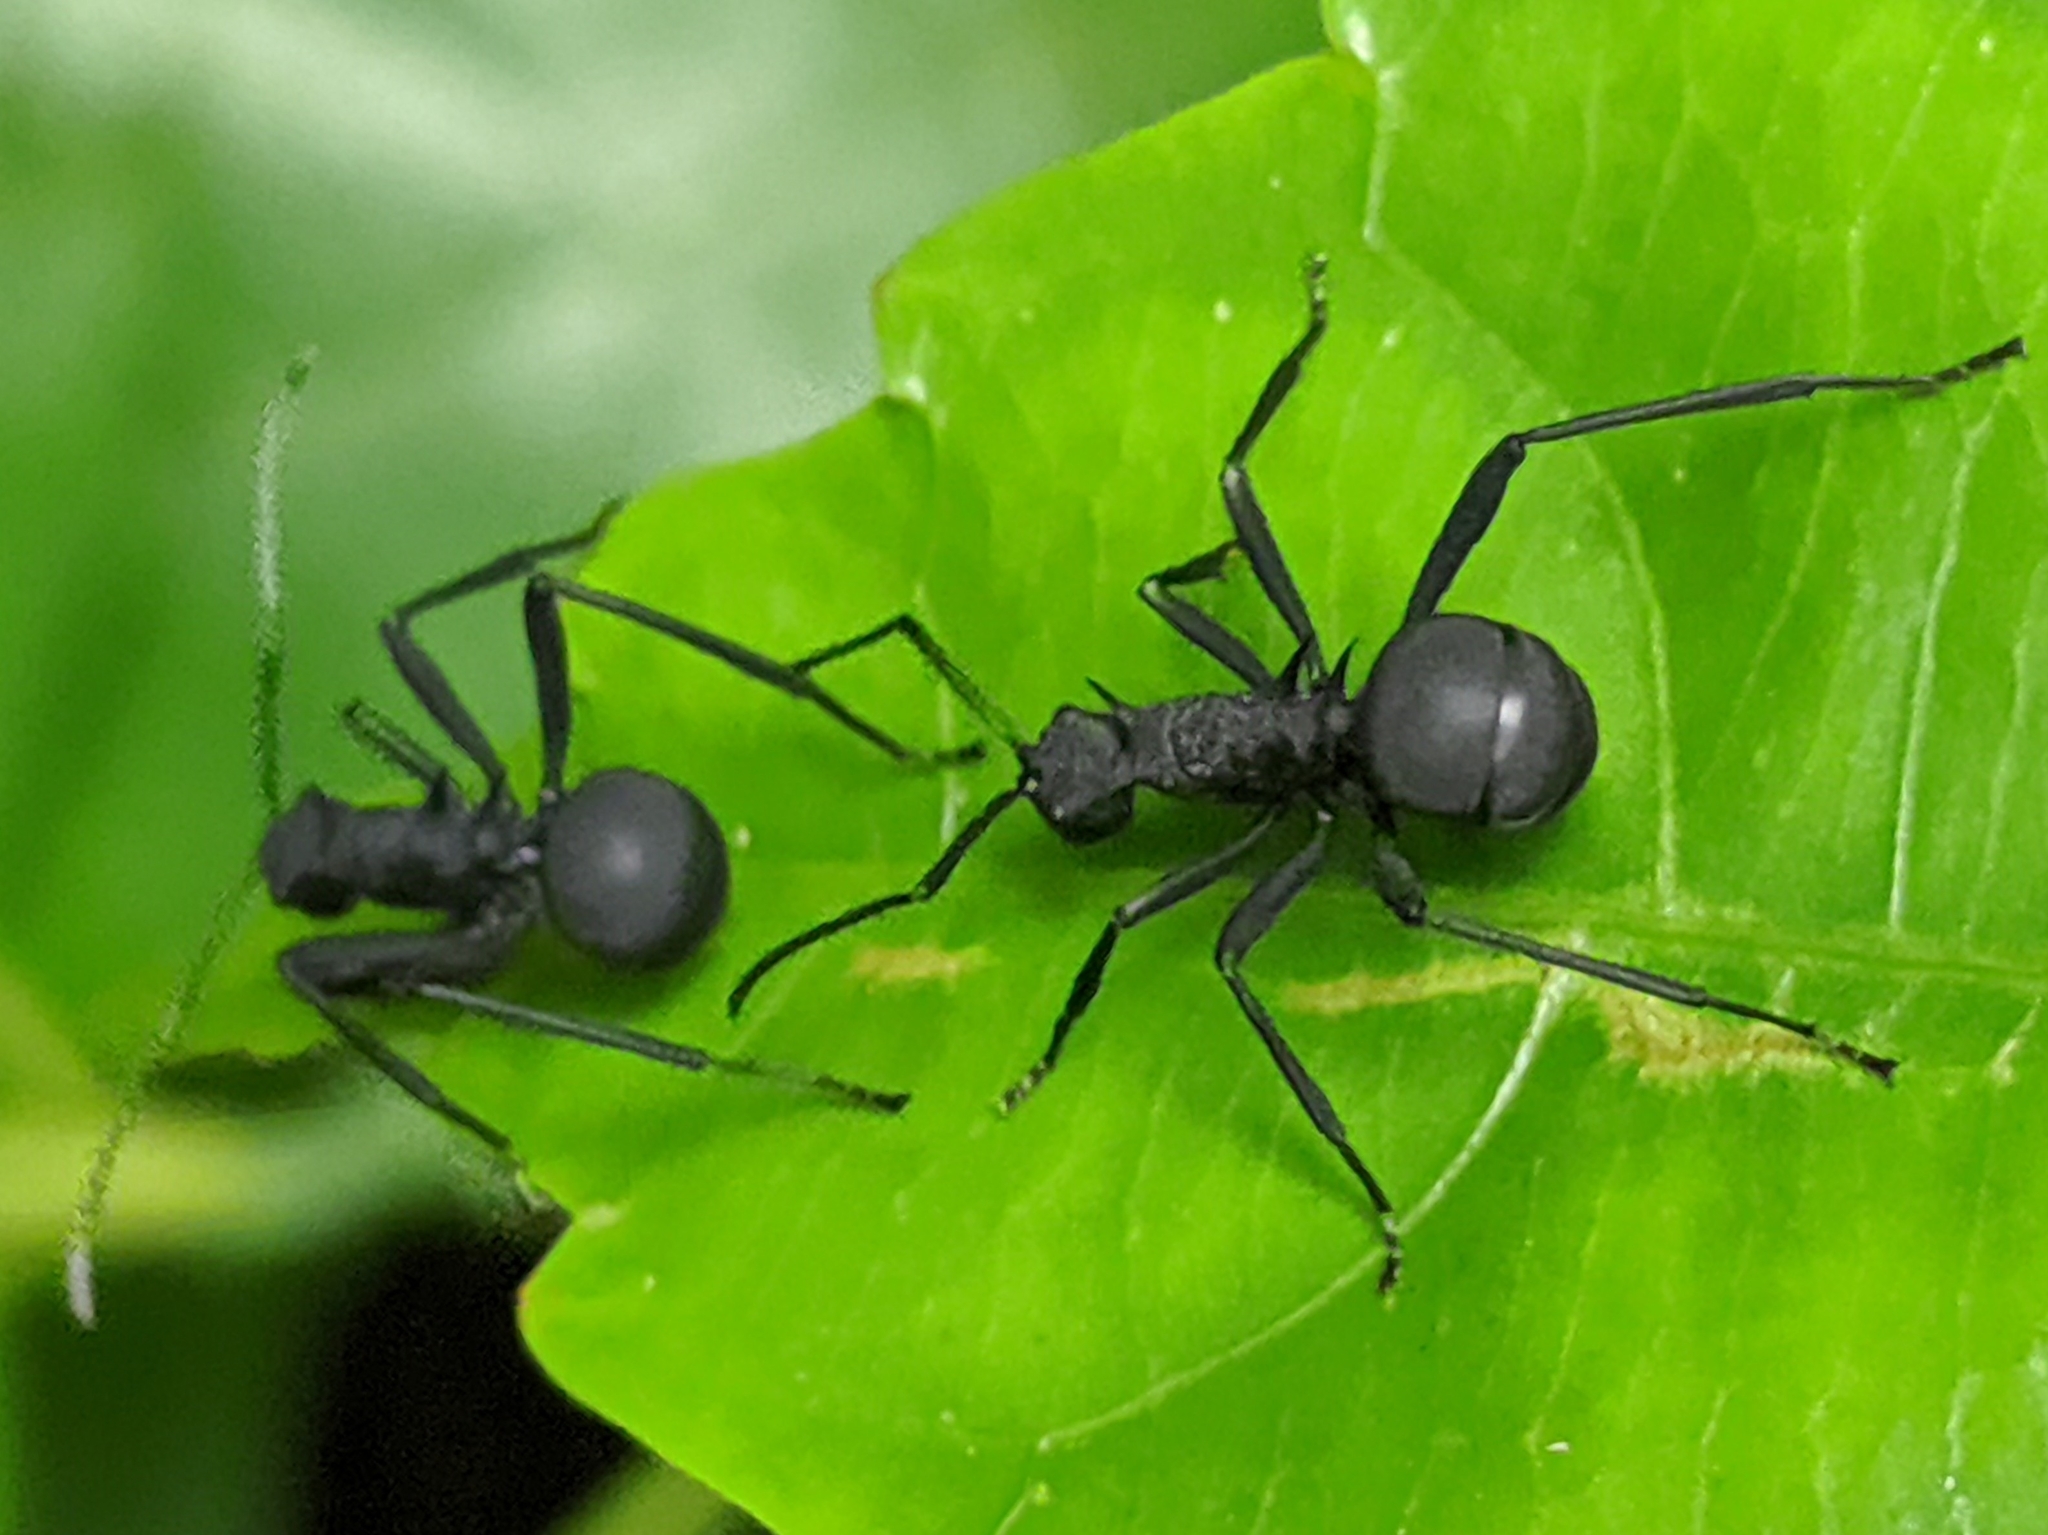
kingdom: Animalia
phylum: Arthropoda
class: Insecta
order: Hymenoptera
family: Formicidae
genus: Polyrhachis
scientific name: Polyrhachis armata
